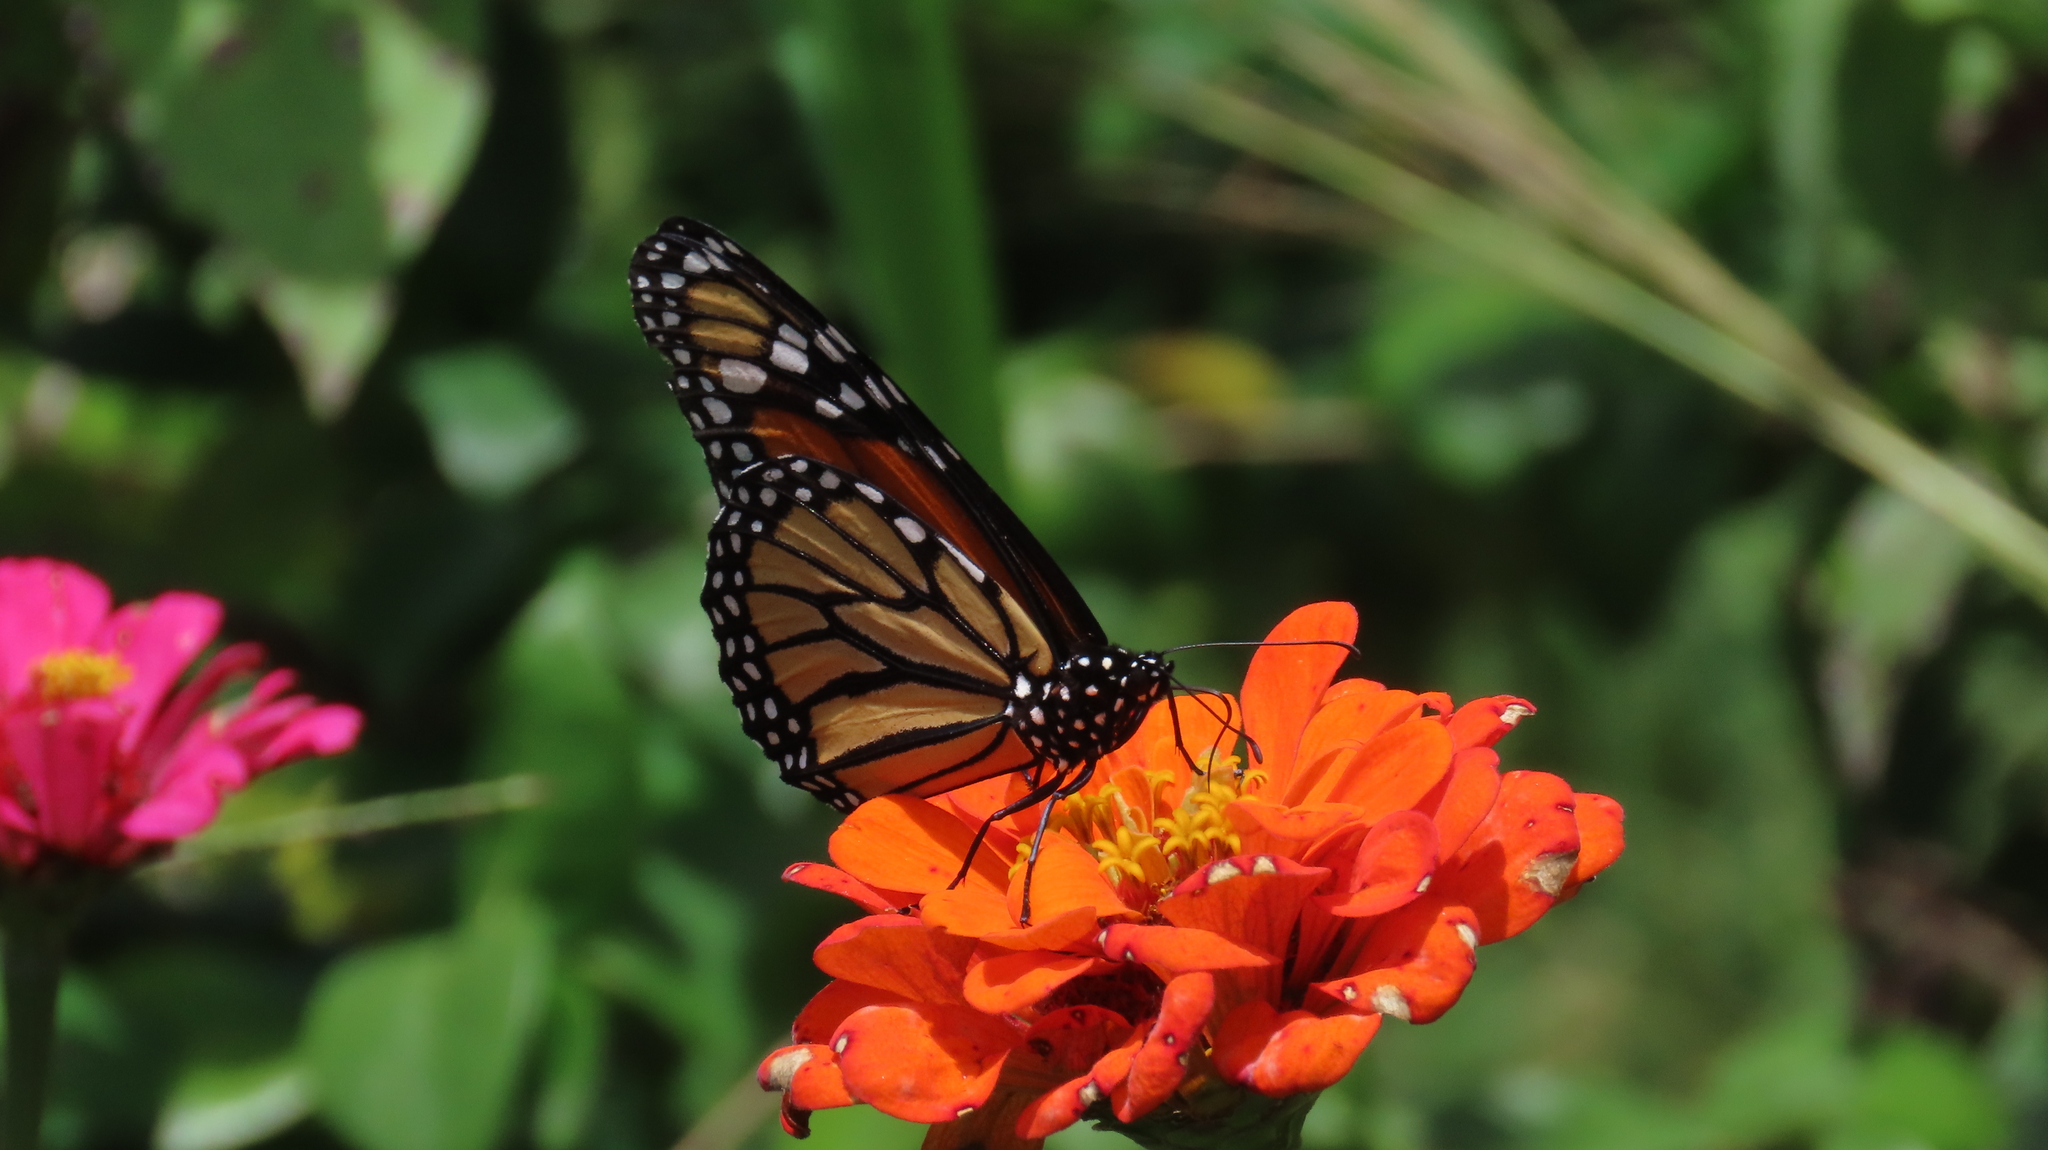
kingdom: Animalia
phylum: Arthropoda
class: Insecta
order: Lepidoptera
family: Nymphalidae
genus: Danaus
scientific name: Danaus plexippus
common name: Monarch
